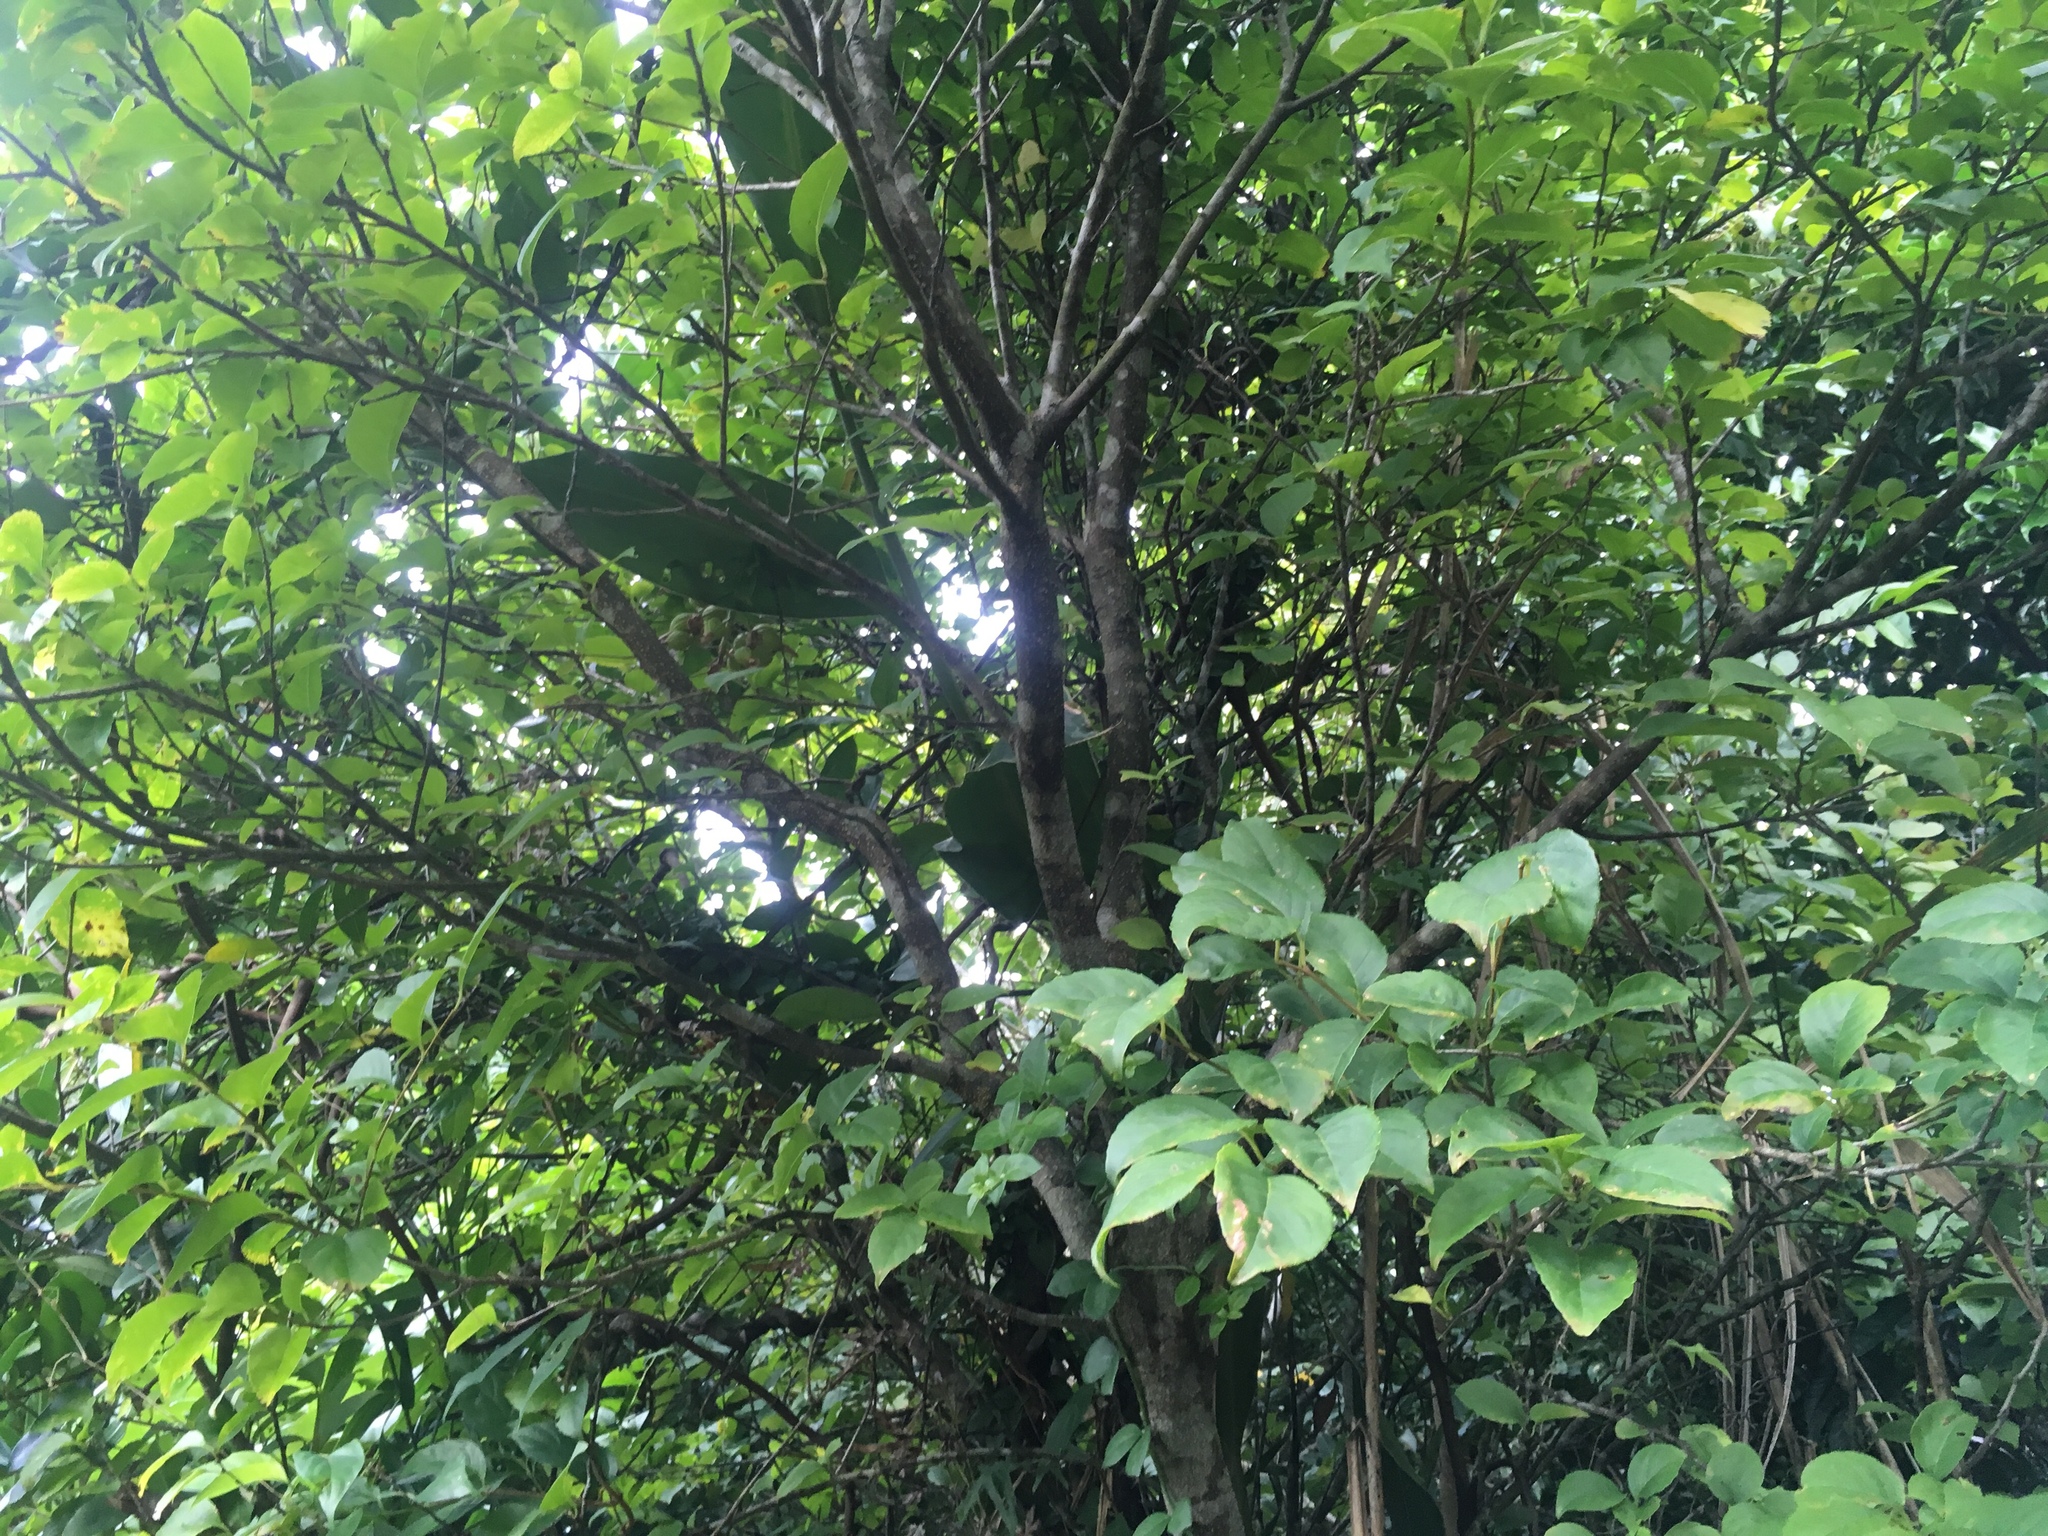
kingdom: Plantae
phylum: Tracheophyta
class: Magnoliopsida
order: Aquifoliales
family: Aquifoliaceae
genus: Ilex
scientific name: Ilex kusanoi
